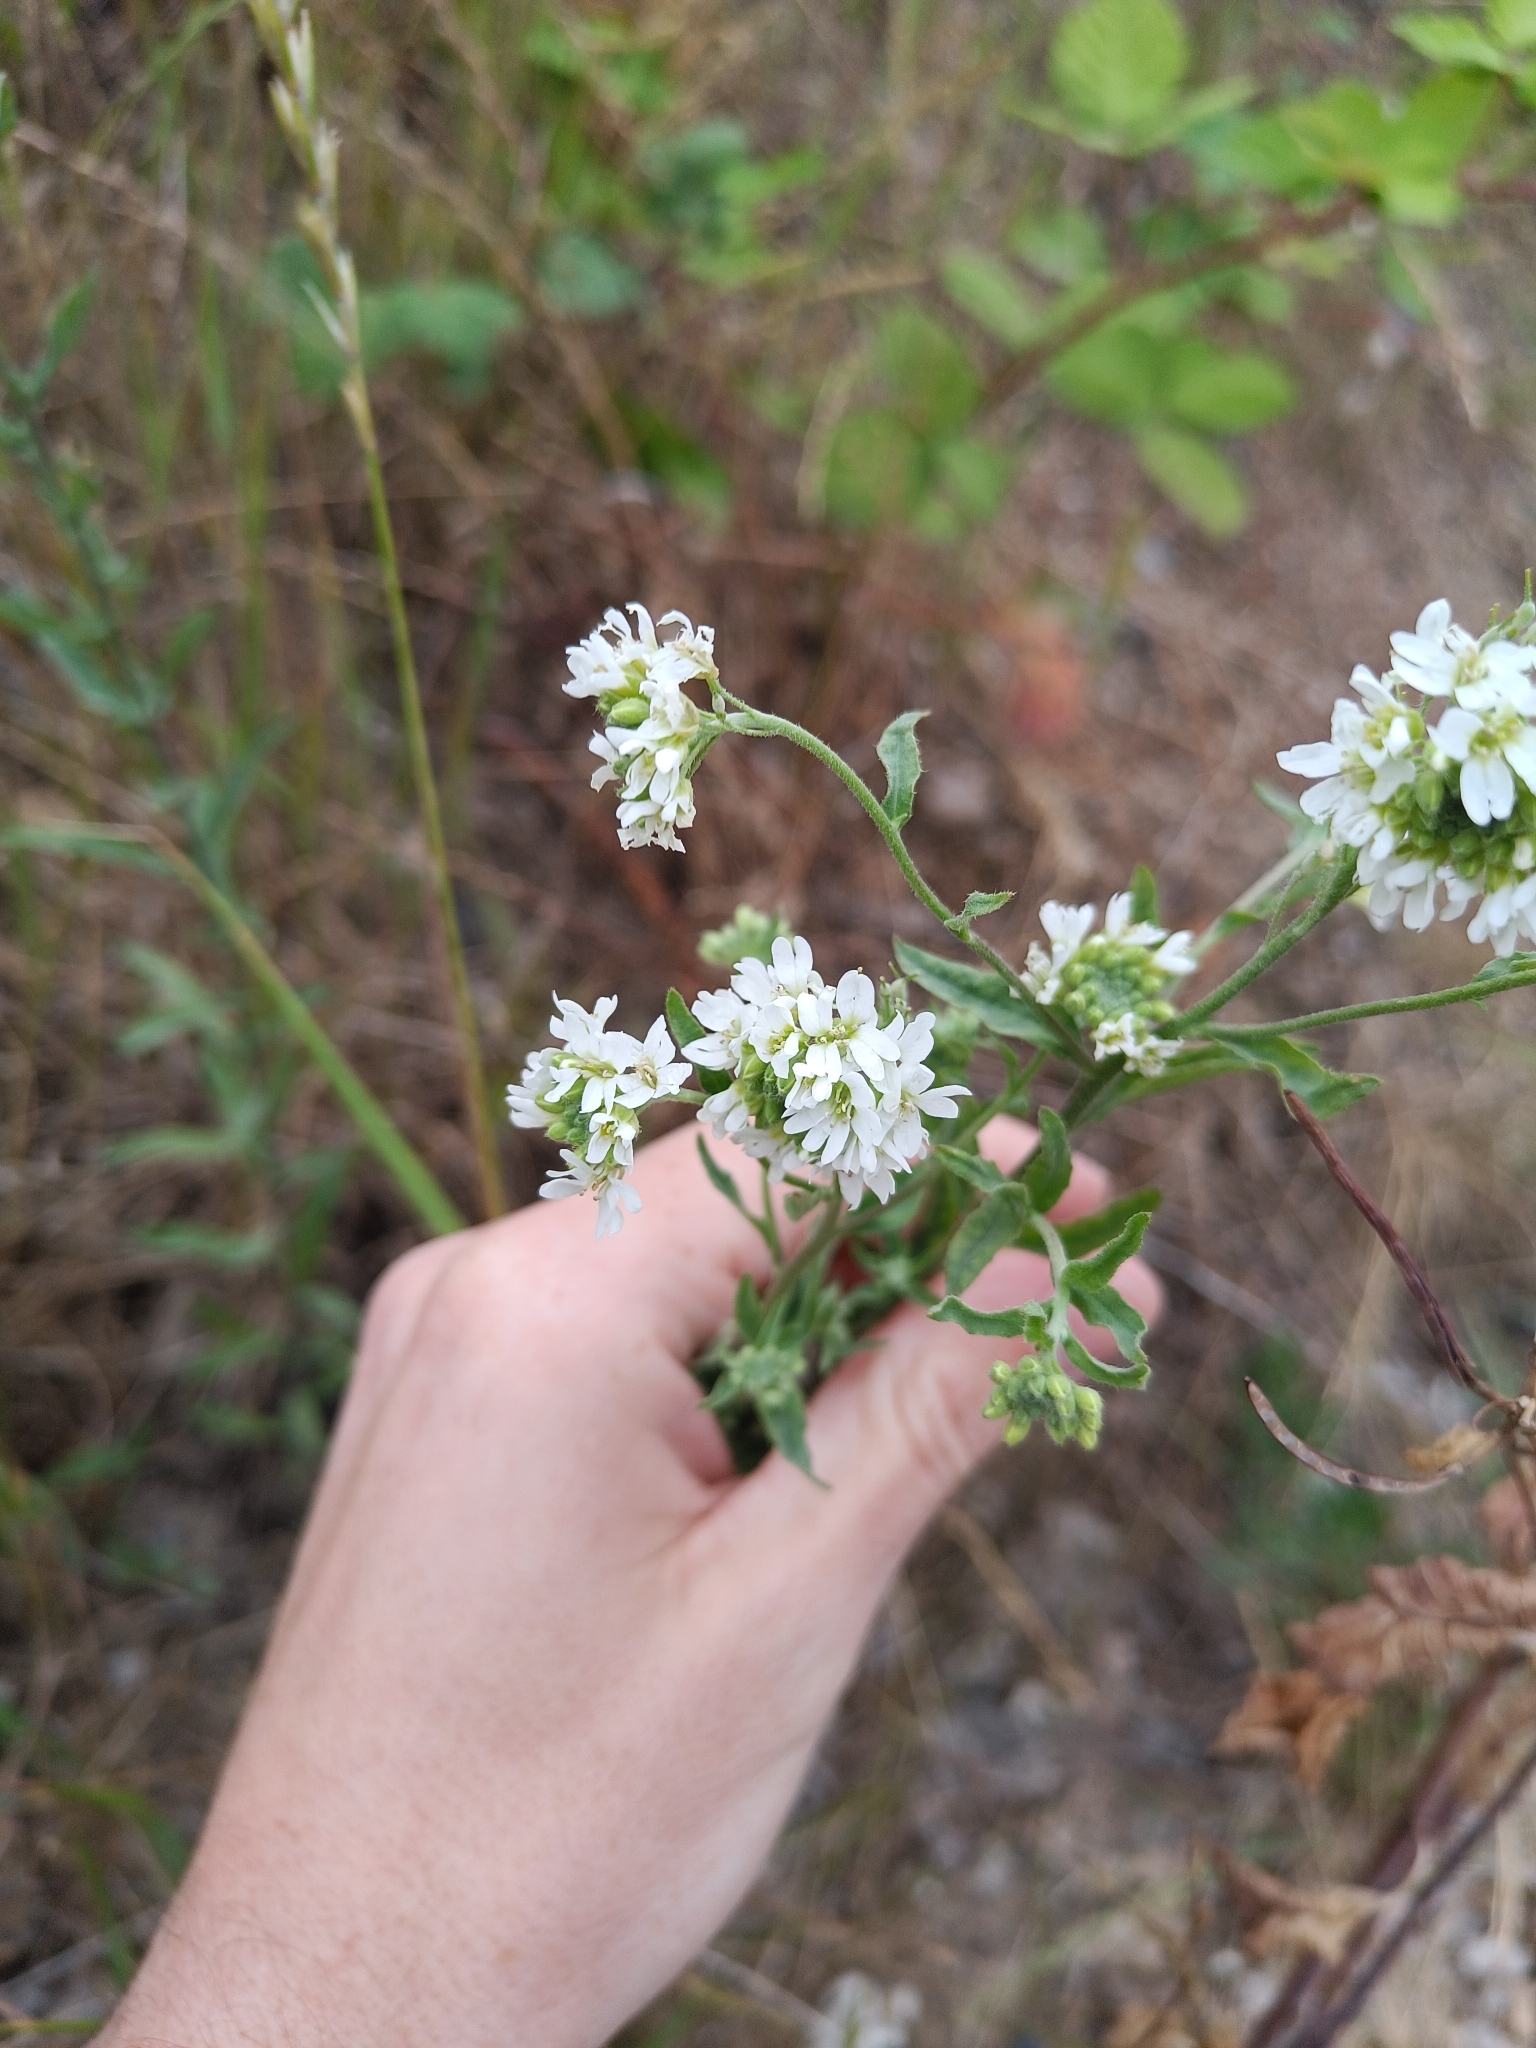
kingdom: Plantae
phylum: Tracheophyta
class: Magnoliopsida
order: Brassicales
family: Brassicaceae
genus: Berteroa
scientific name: Berteroa incana
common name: Hoary alison
